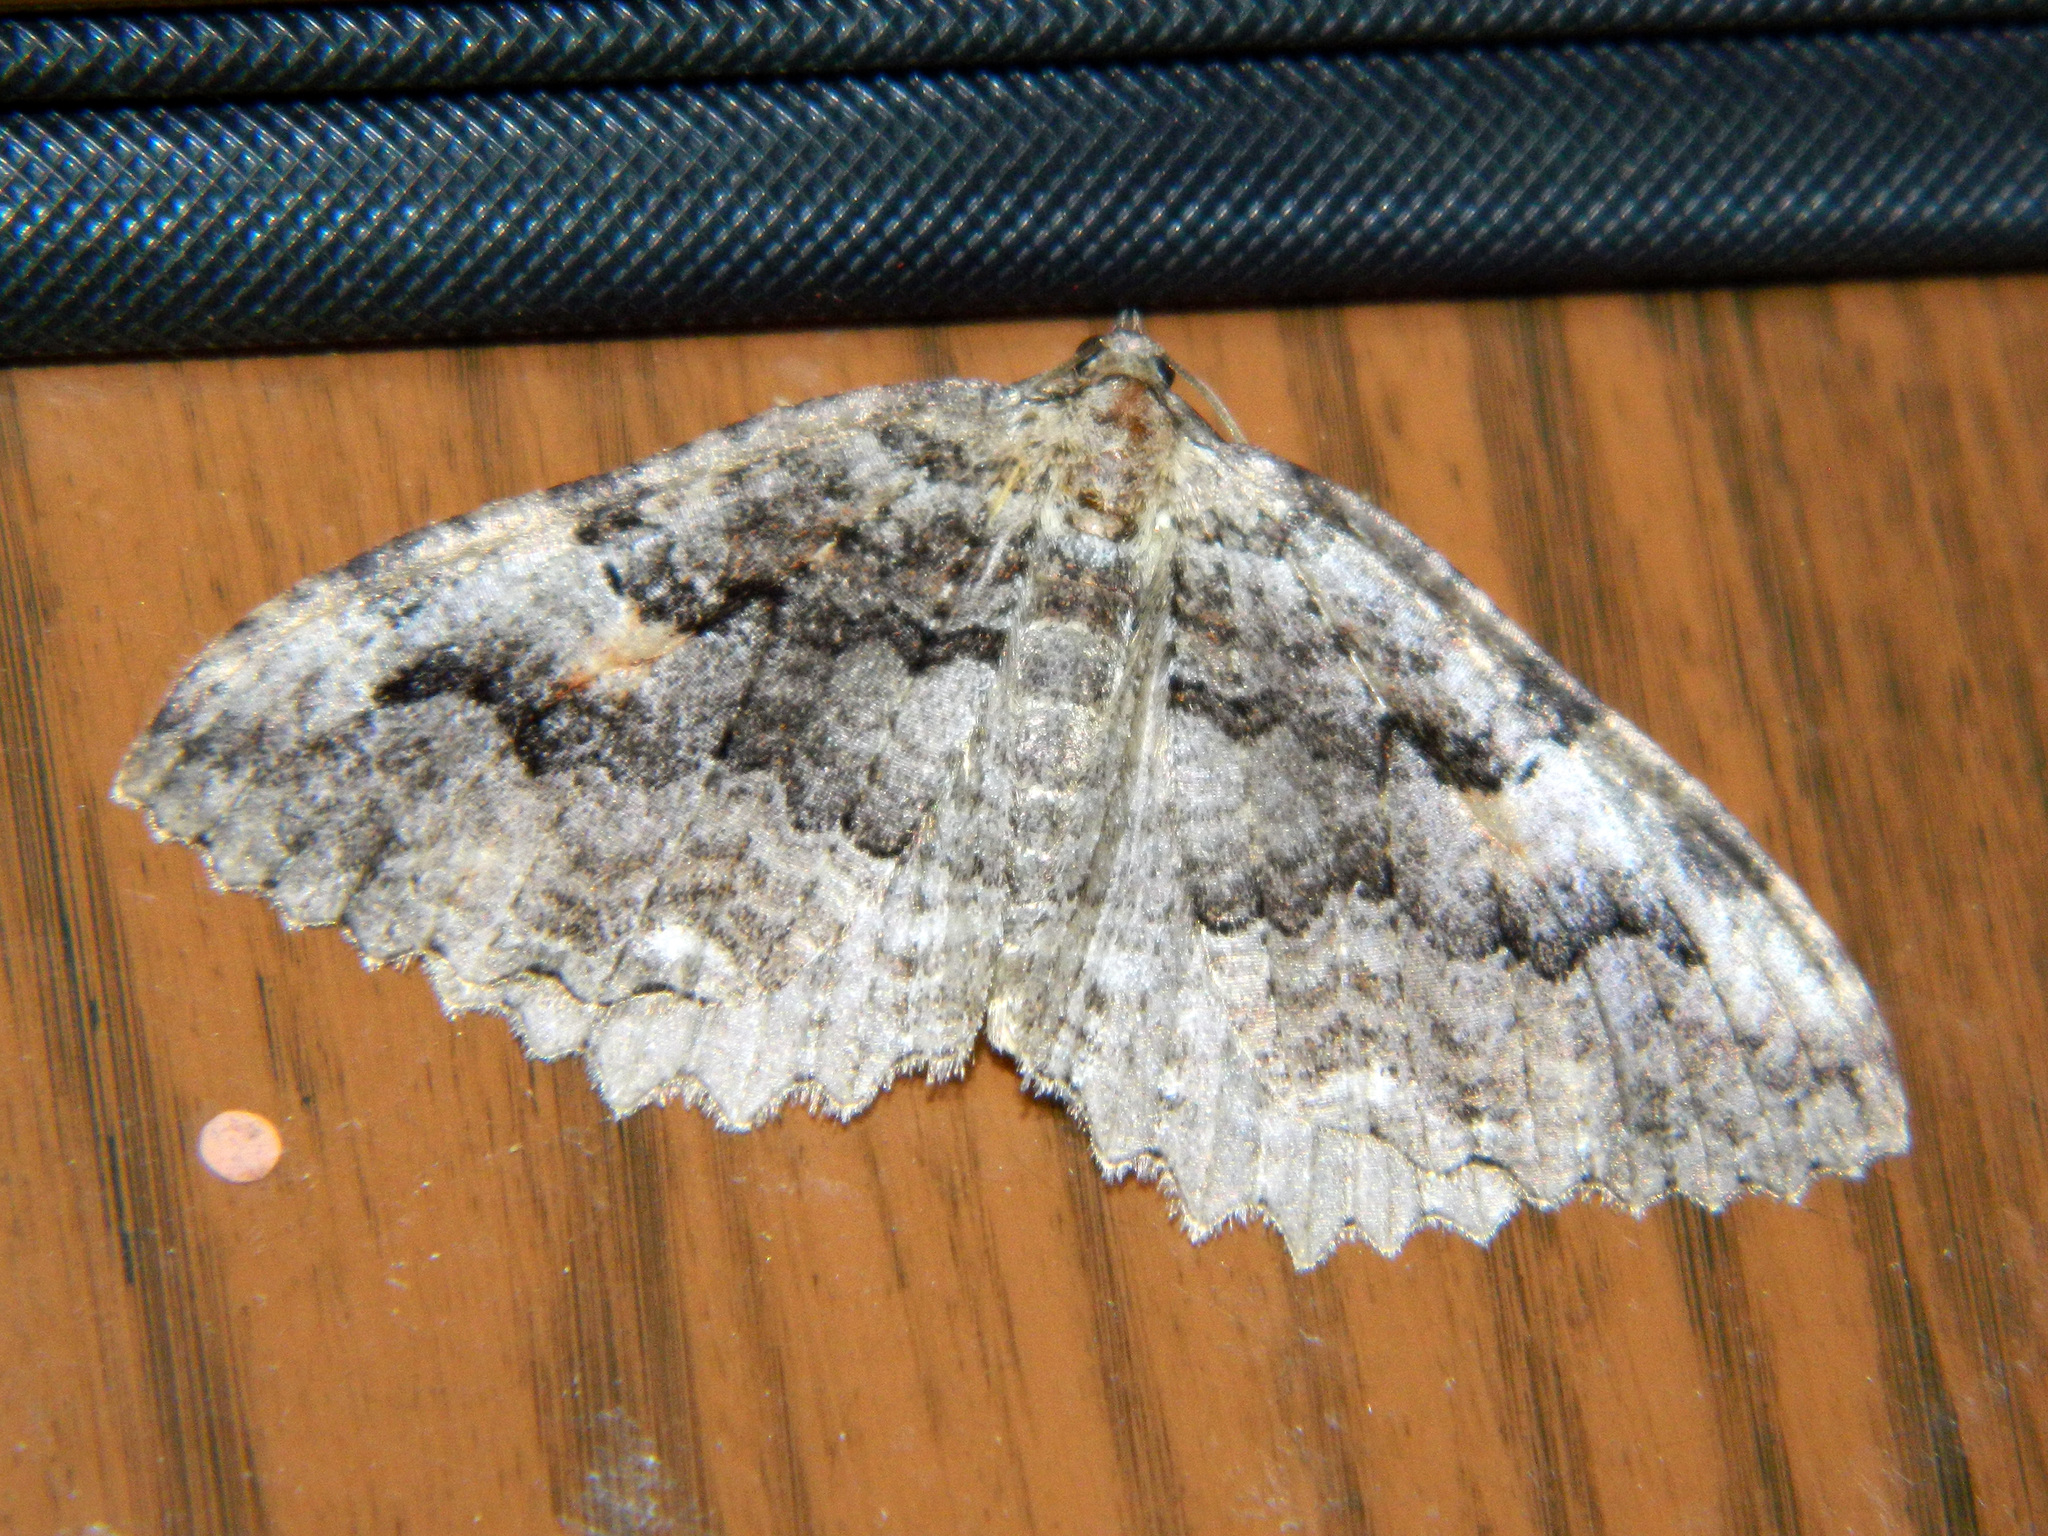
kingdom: Animalia
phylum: Arthropoda
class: Insecta
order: Lepidoptera
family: Geometridae
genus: Triphosa
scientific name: Triphosa haesitata
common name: Tissue moth
